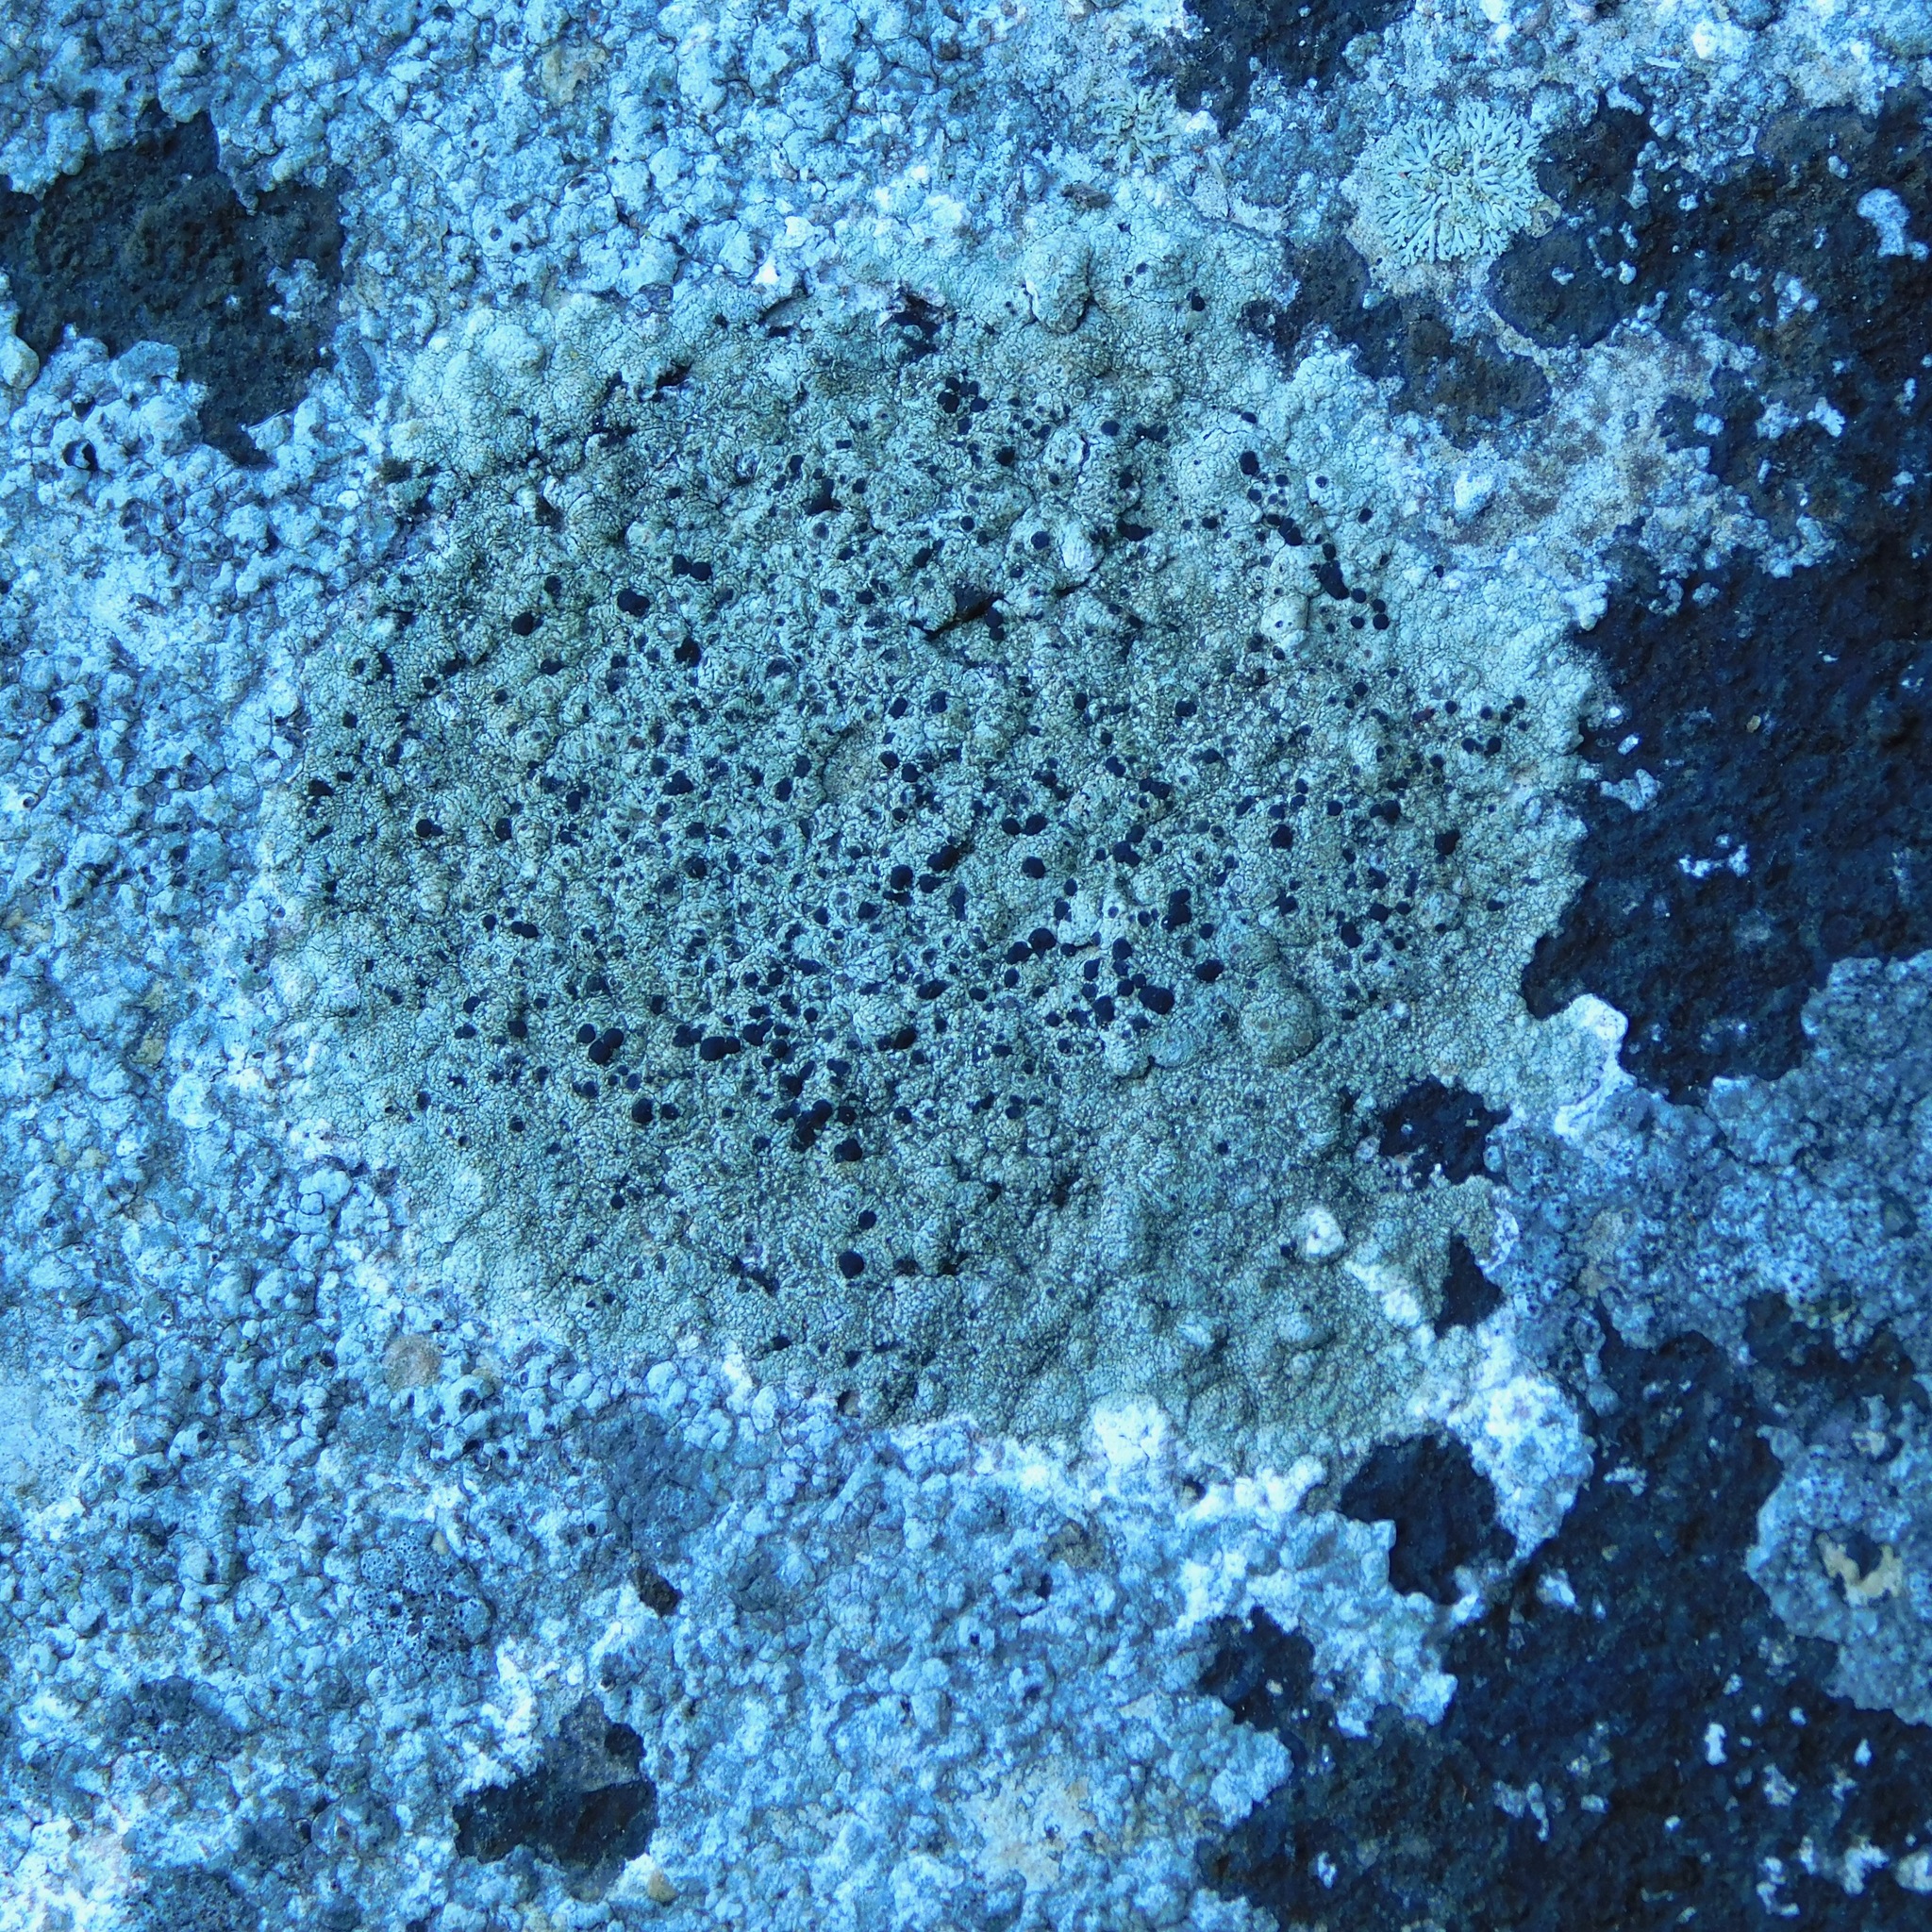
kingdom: Fungi
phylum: Ascomycota
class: Lecanoromycetes
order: Lecanorales
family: Lecanoraceae
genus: Lecanora
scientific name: Lecanora subimmergens
